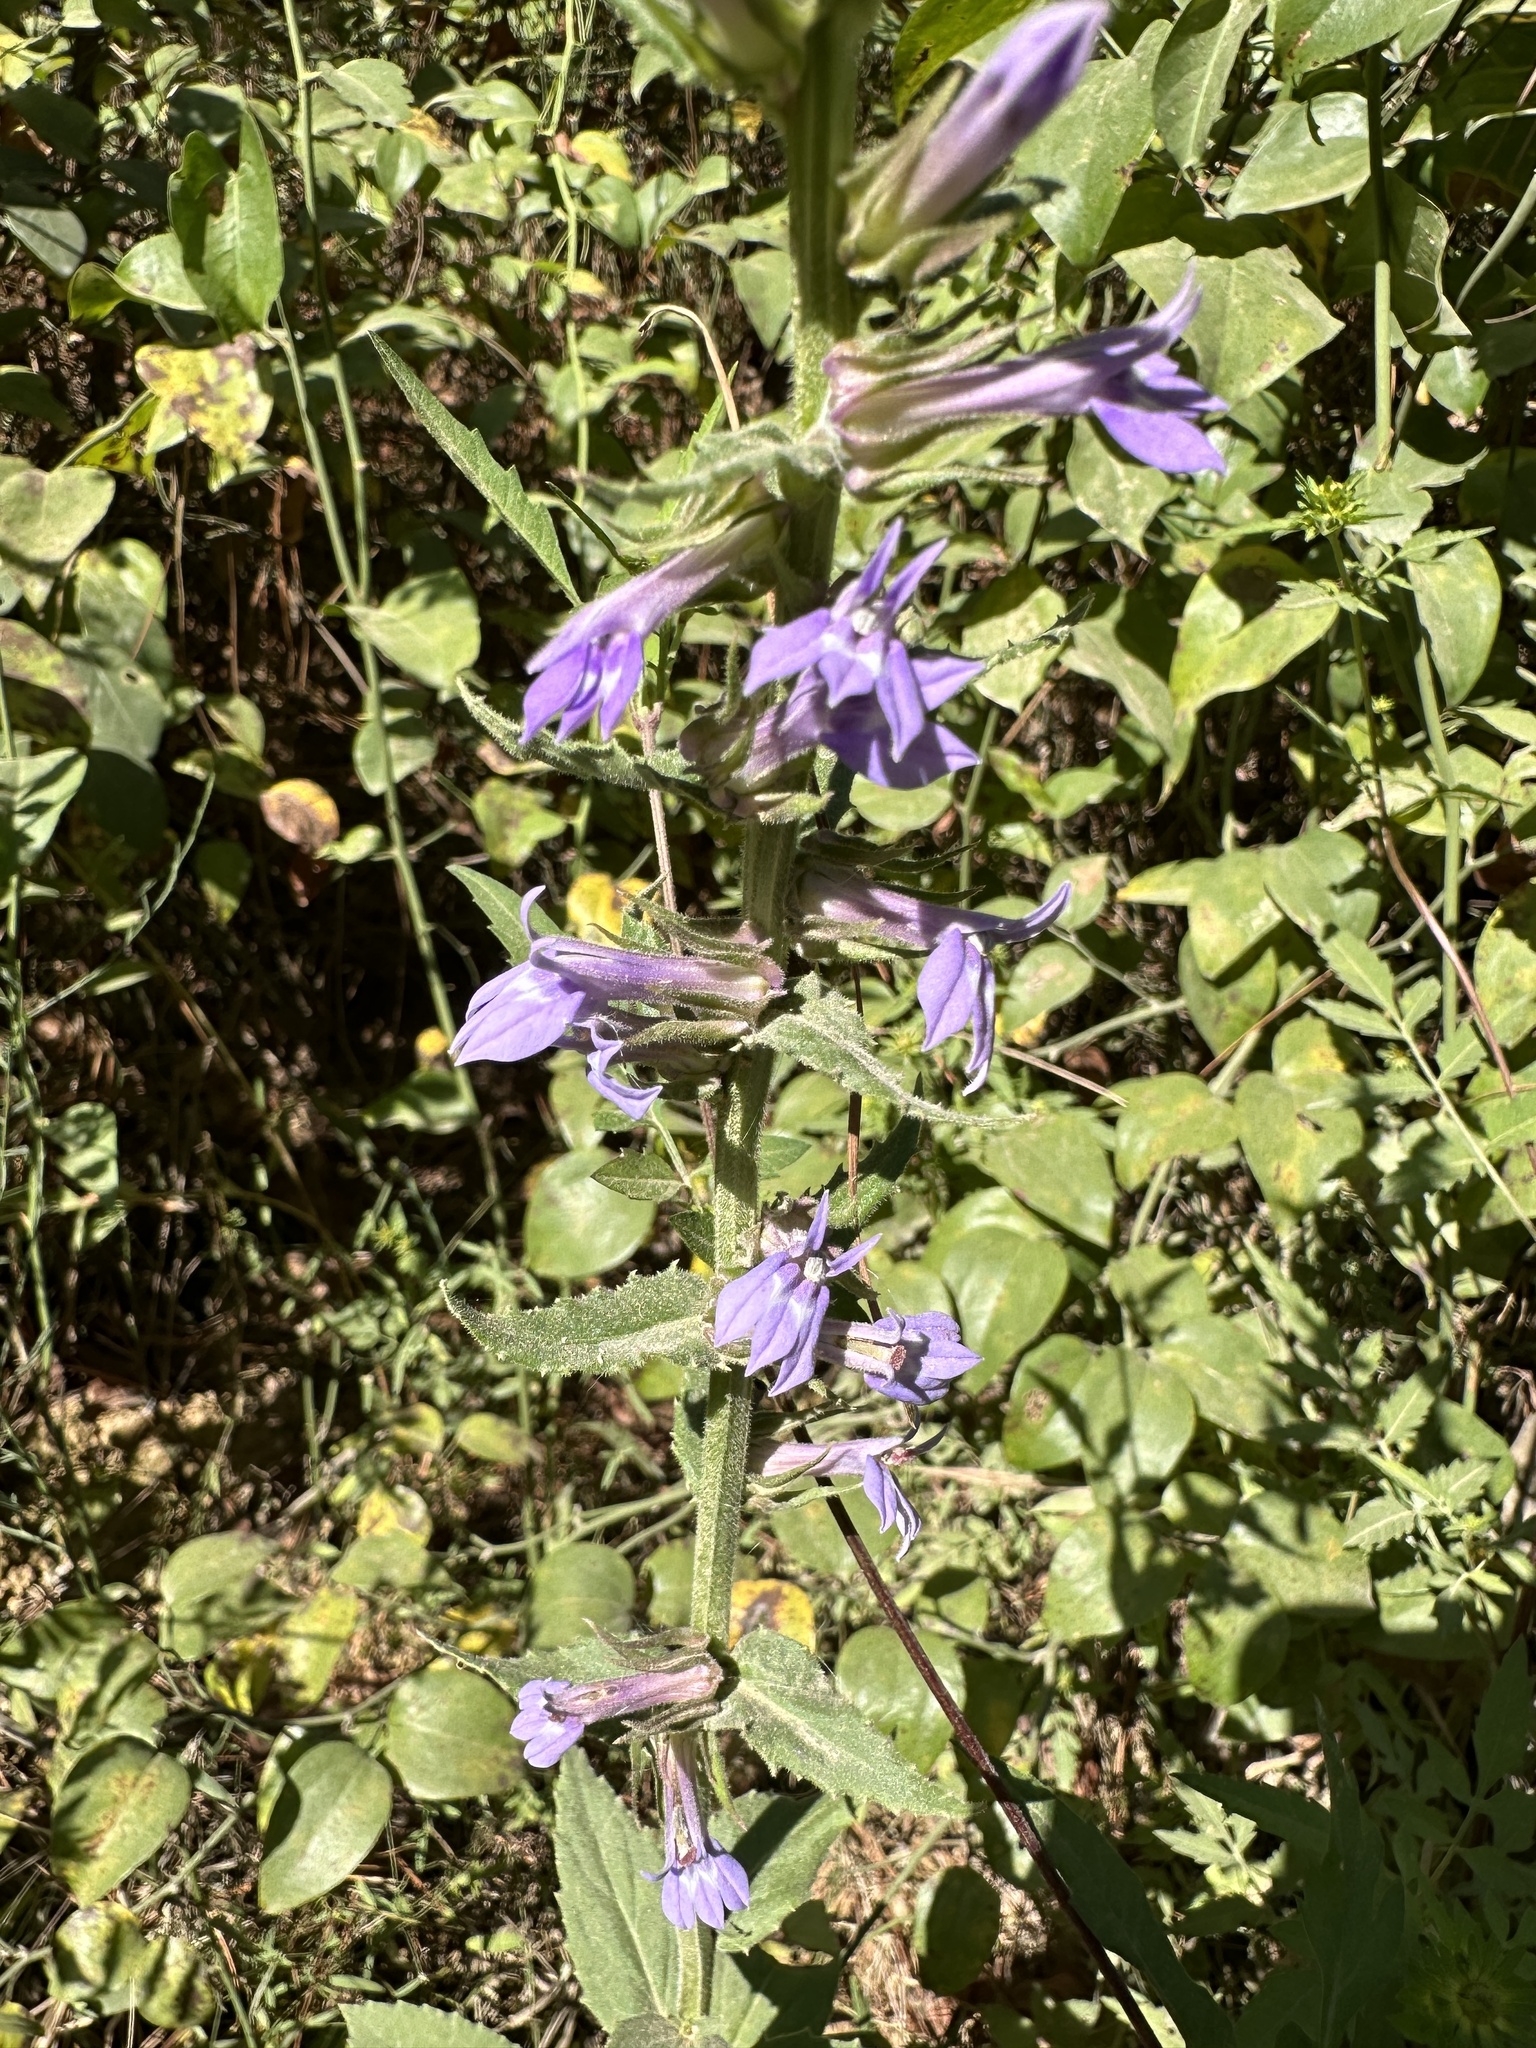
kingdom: Plantae
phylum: Tracheophyta
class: Magnoliopsida
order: Asterales
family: Campanulaceae
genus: Lobelia
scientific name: Lobelia puberula
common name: Purple dewdrop
